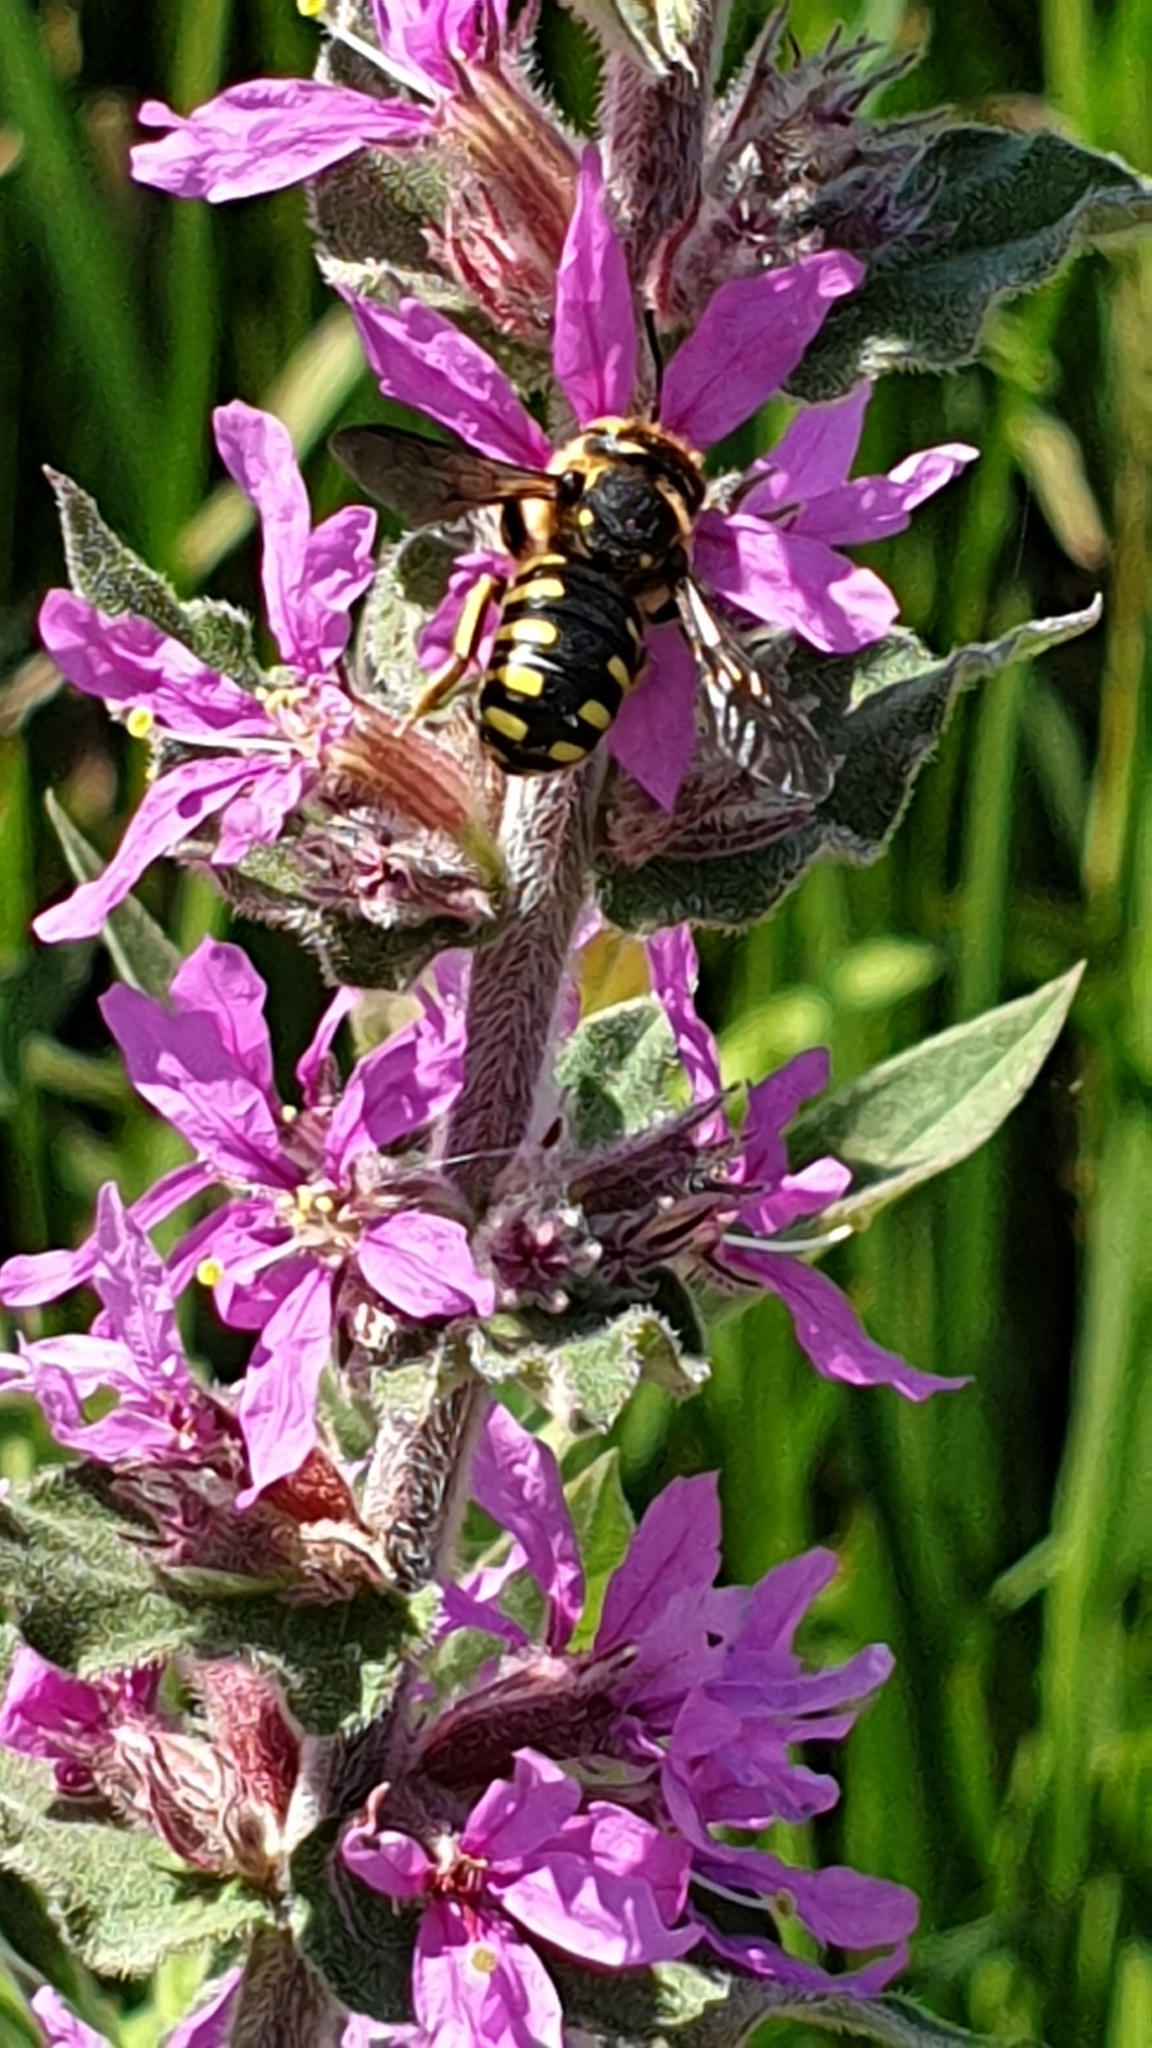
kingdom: Animalia
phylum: Arthropoda
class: Insecta
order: Hymenoptera
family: Megachilidae
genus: Anthidium
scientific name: Anthidium florentinum
